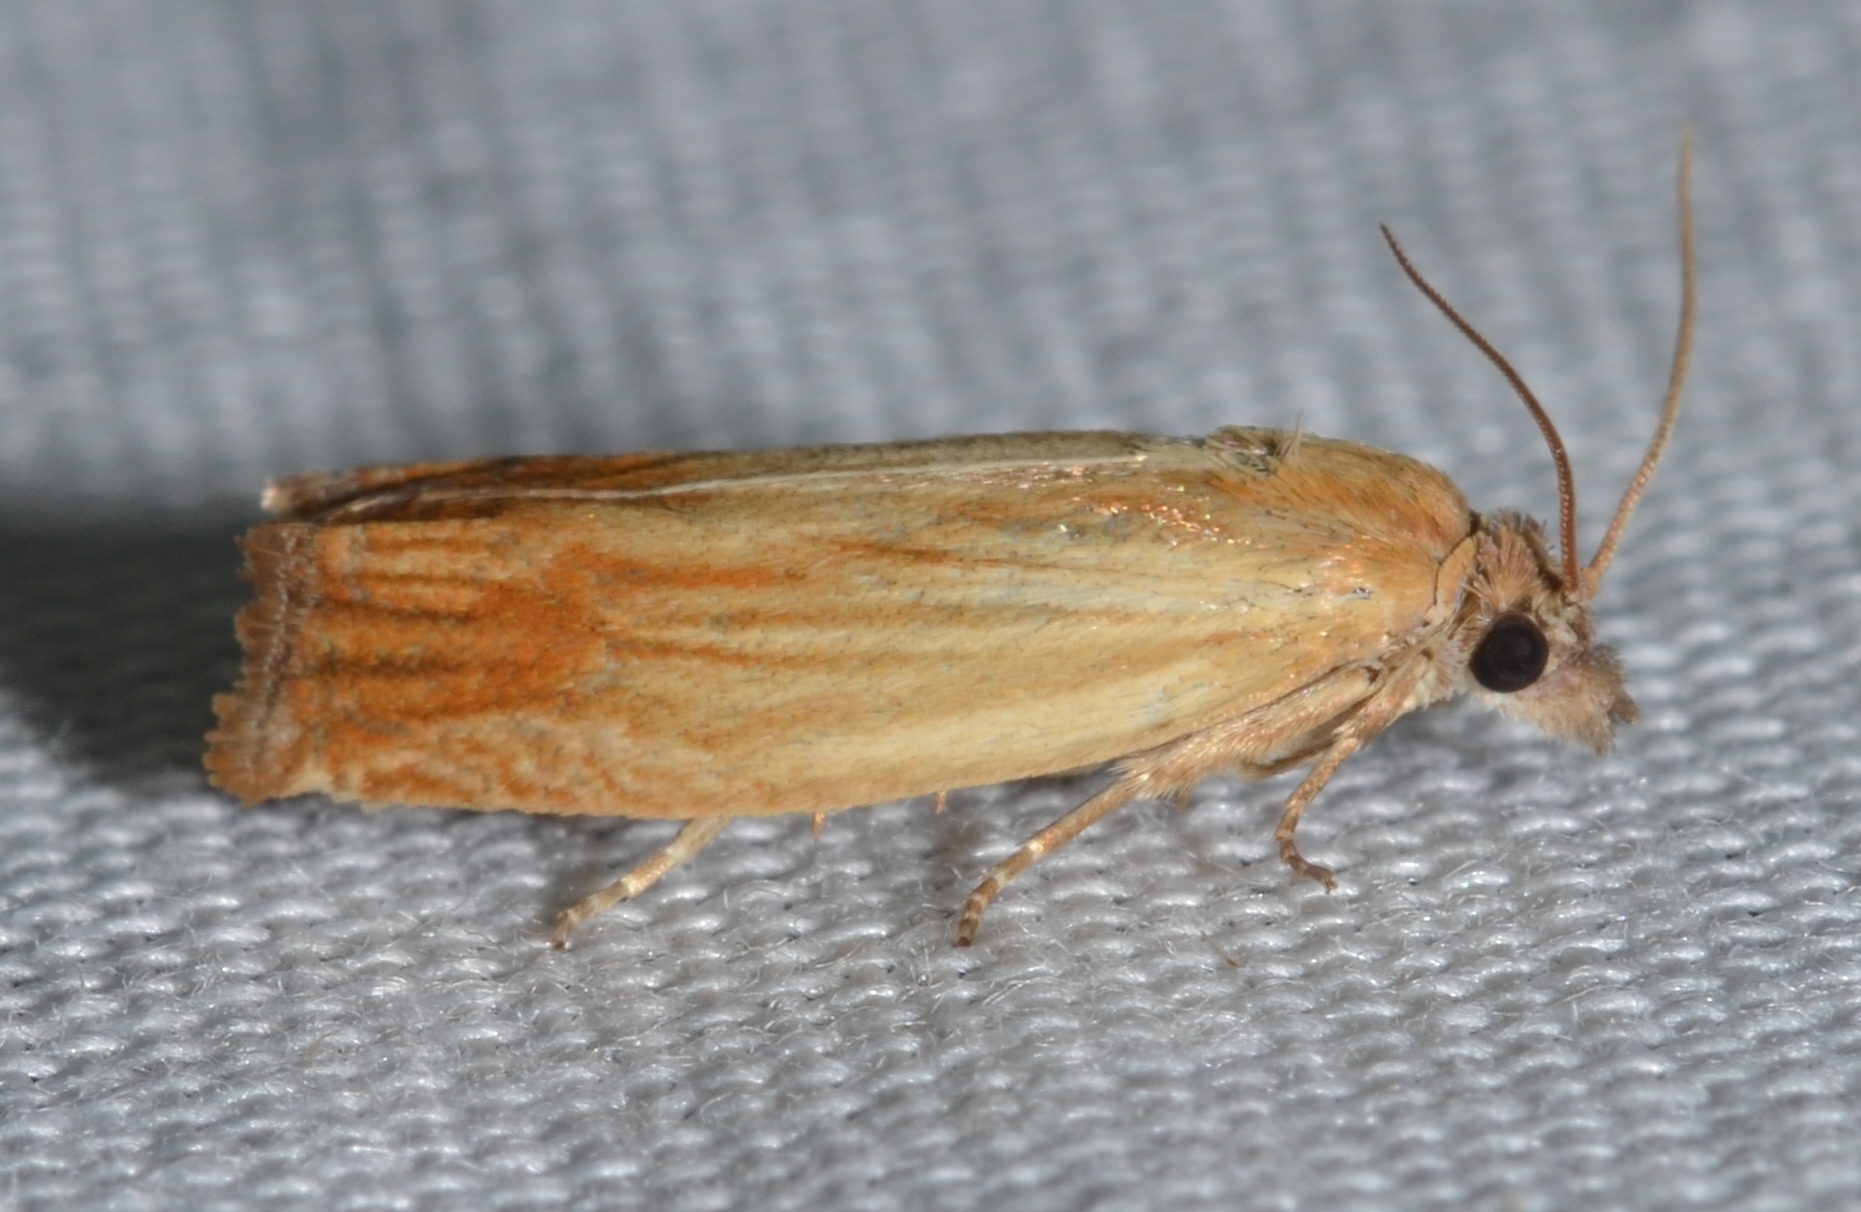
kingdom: Animalia
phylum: Arthropoda
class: Insecta
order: Lepidoptera
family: Tortricidae
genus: Eucosma
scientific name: Eucosma umbrastriana
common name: Smoky-striped eucosoma
